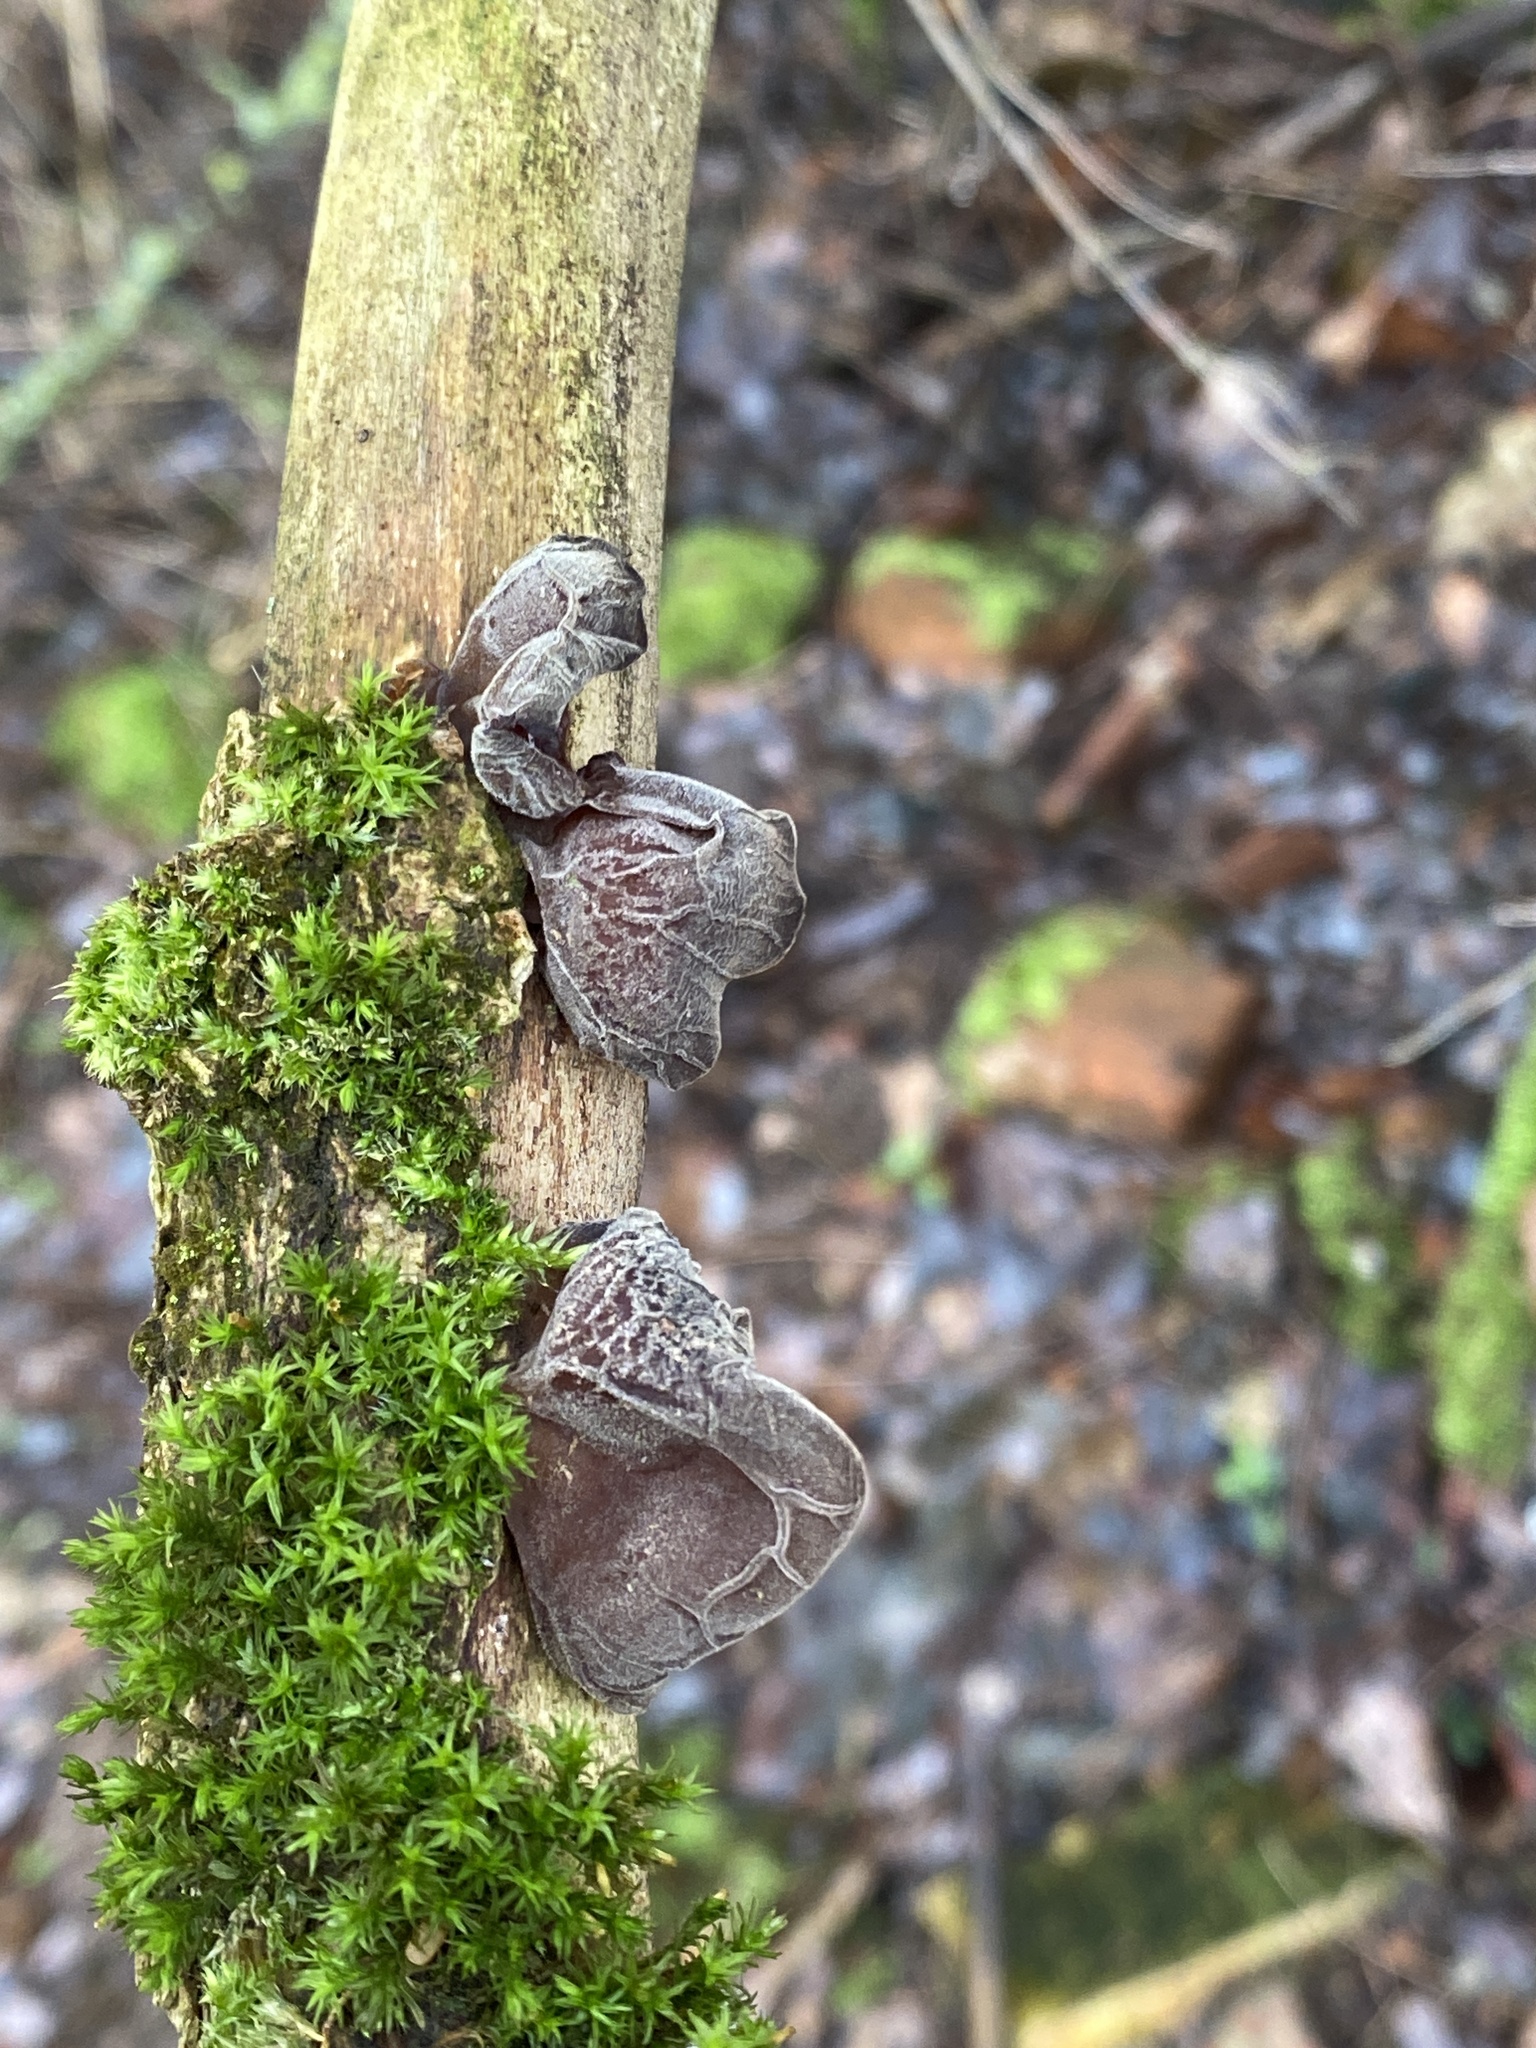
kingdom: Fungi
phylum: Basidiomycota
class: Agaricomycetes
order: Auriculariales
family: Auriculariaceae
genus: Auricularia
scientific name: Auricularia auricula-judae
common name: Jelly ear
